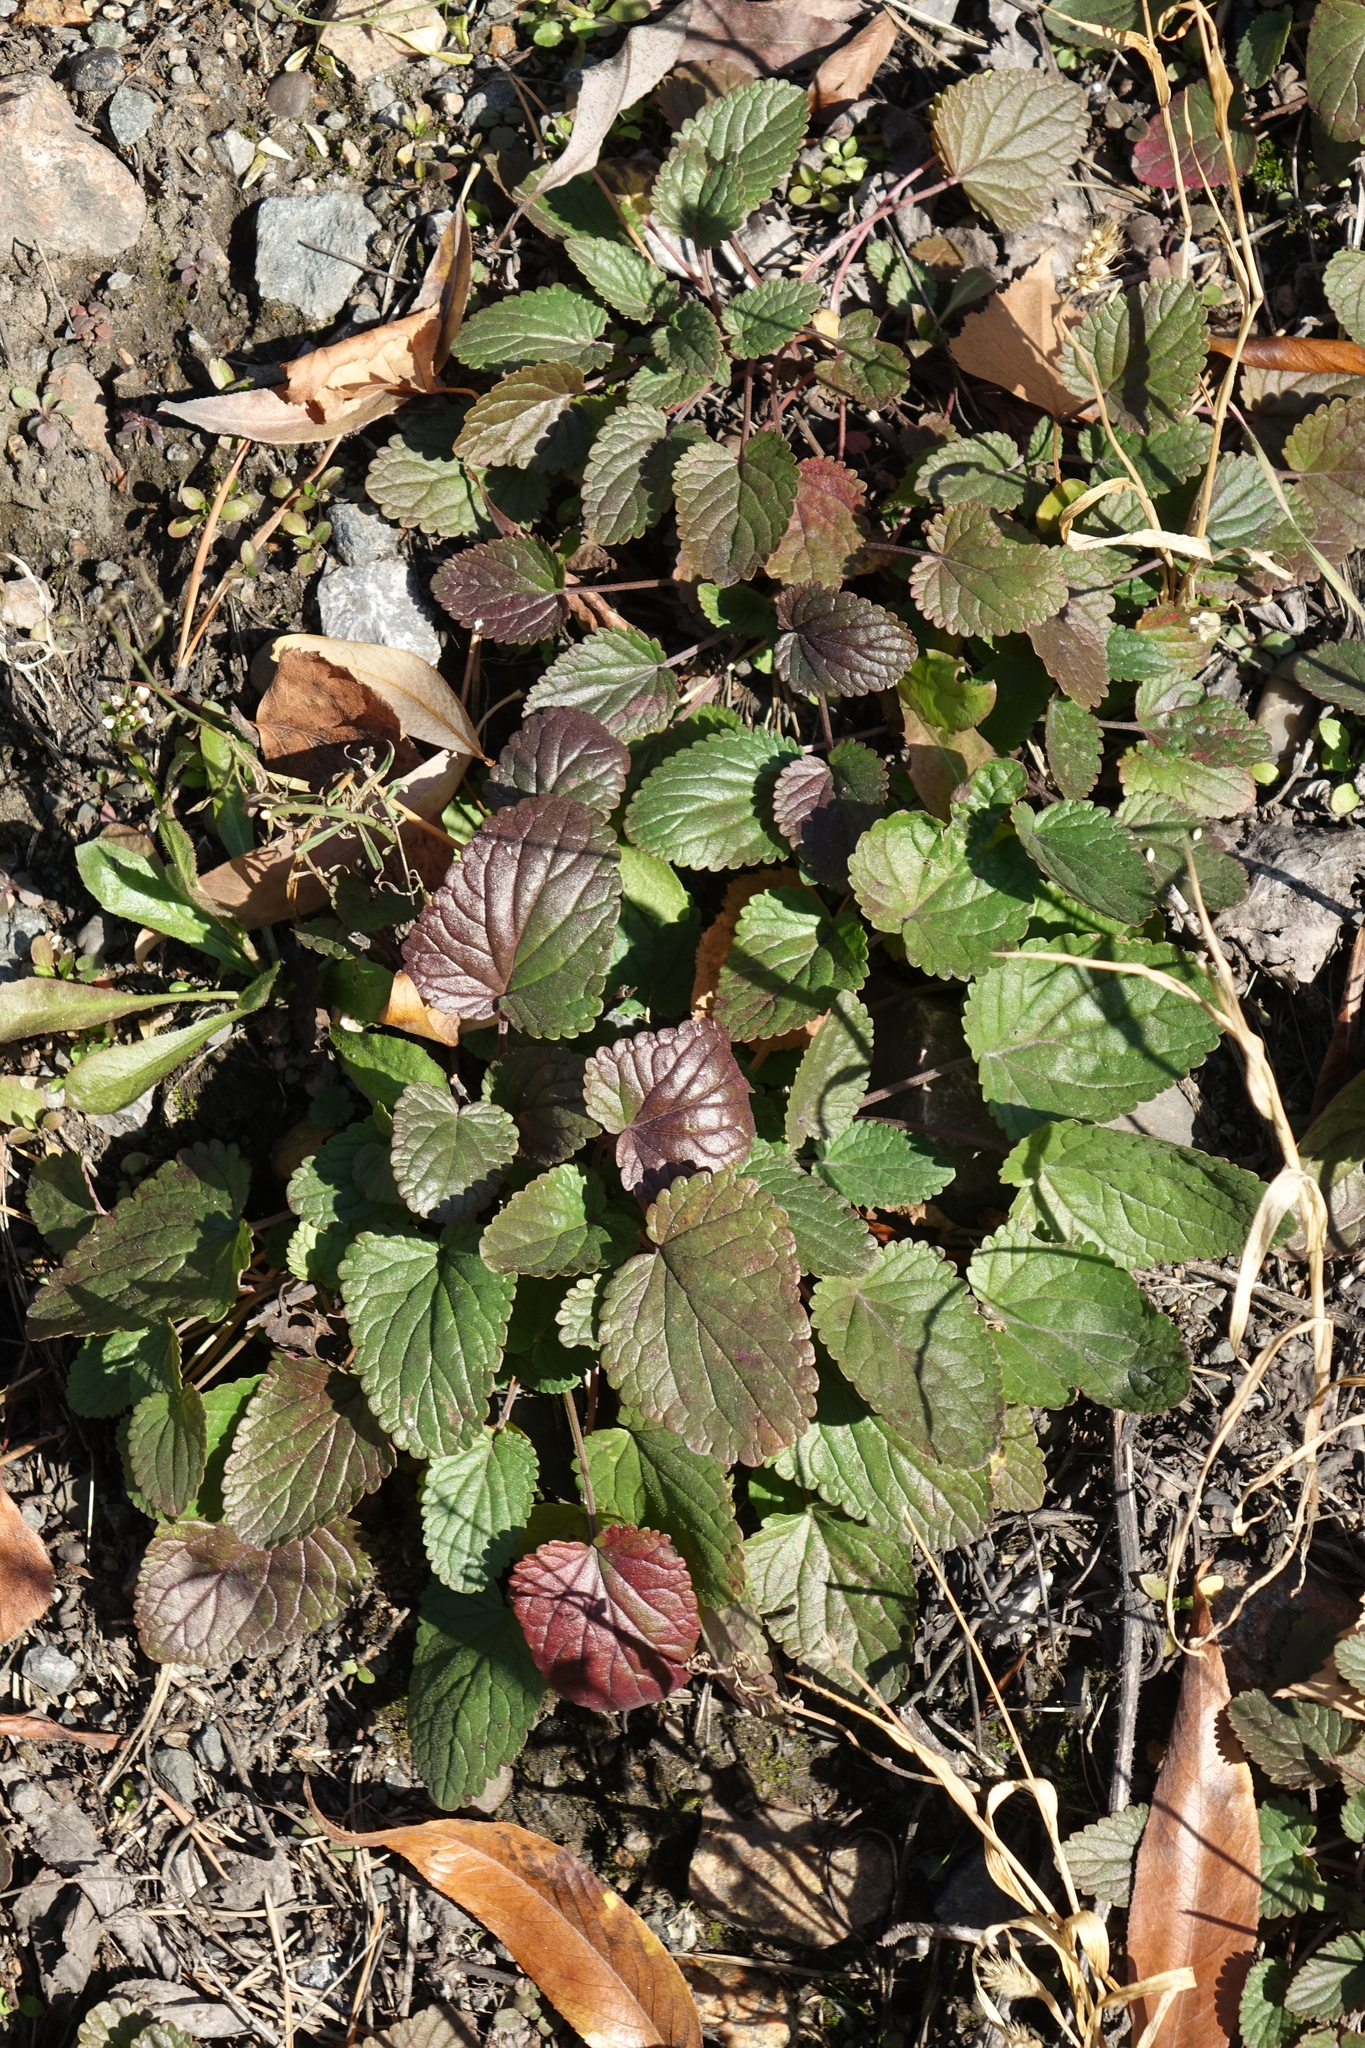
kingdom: Plantae
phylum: Tracheophyta
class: Magnoliopsida
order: Lamiales
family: Lamiaceae
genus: Dracocephalum
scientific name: Dracocephalum nutans
